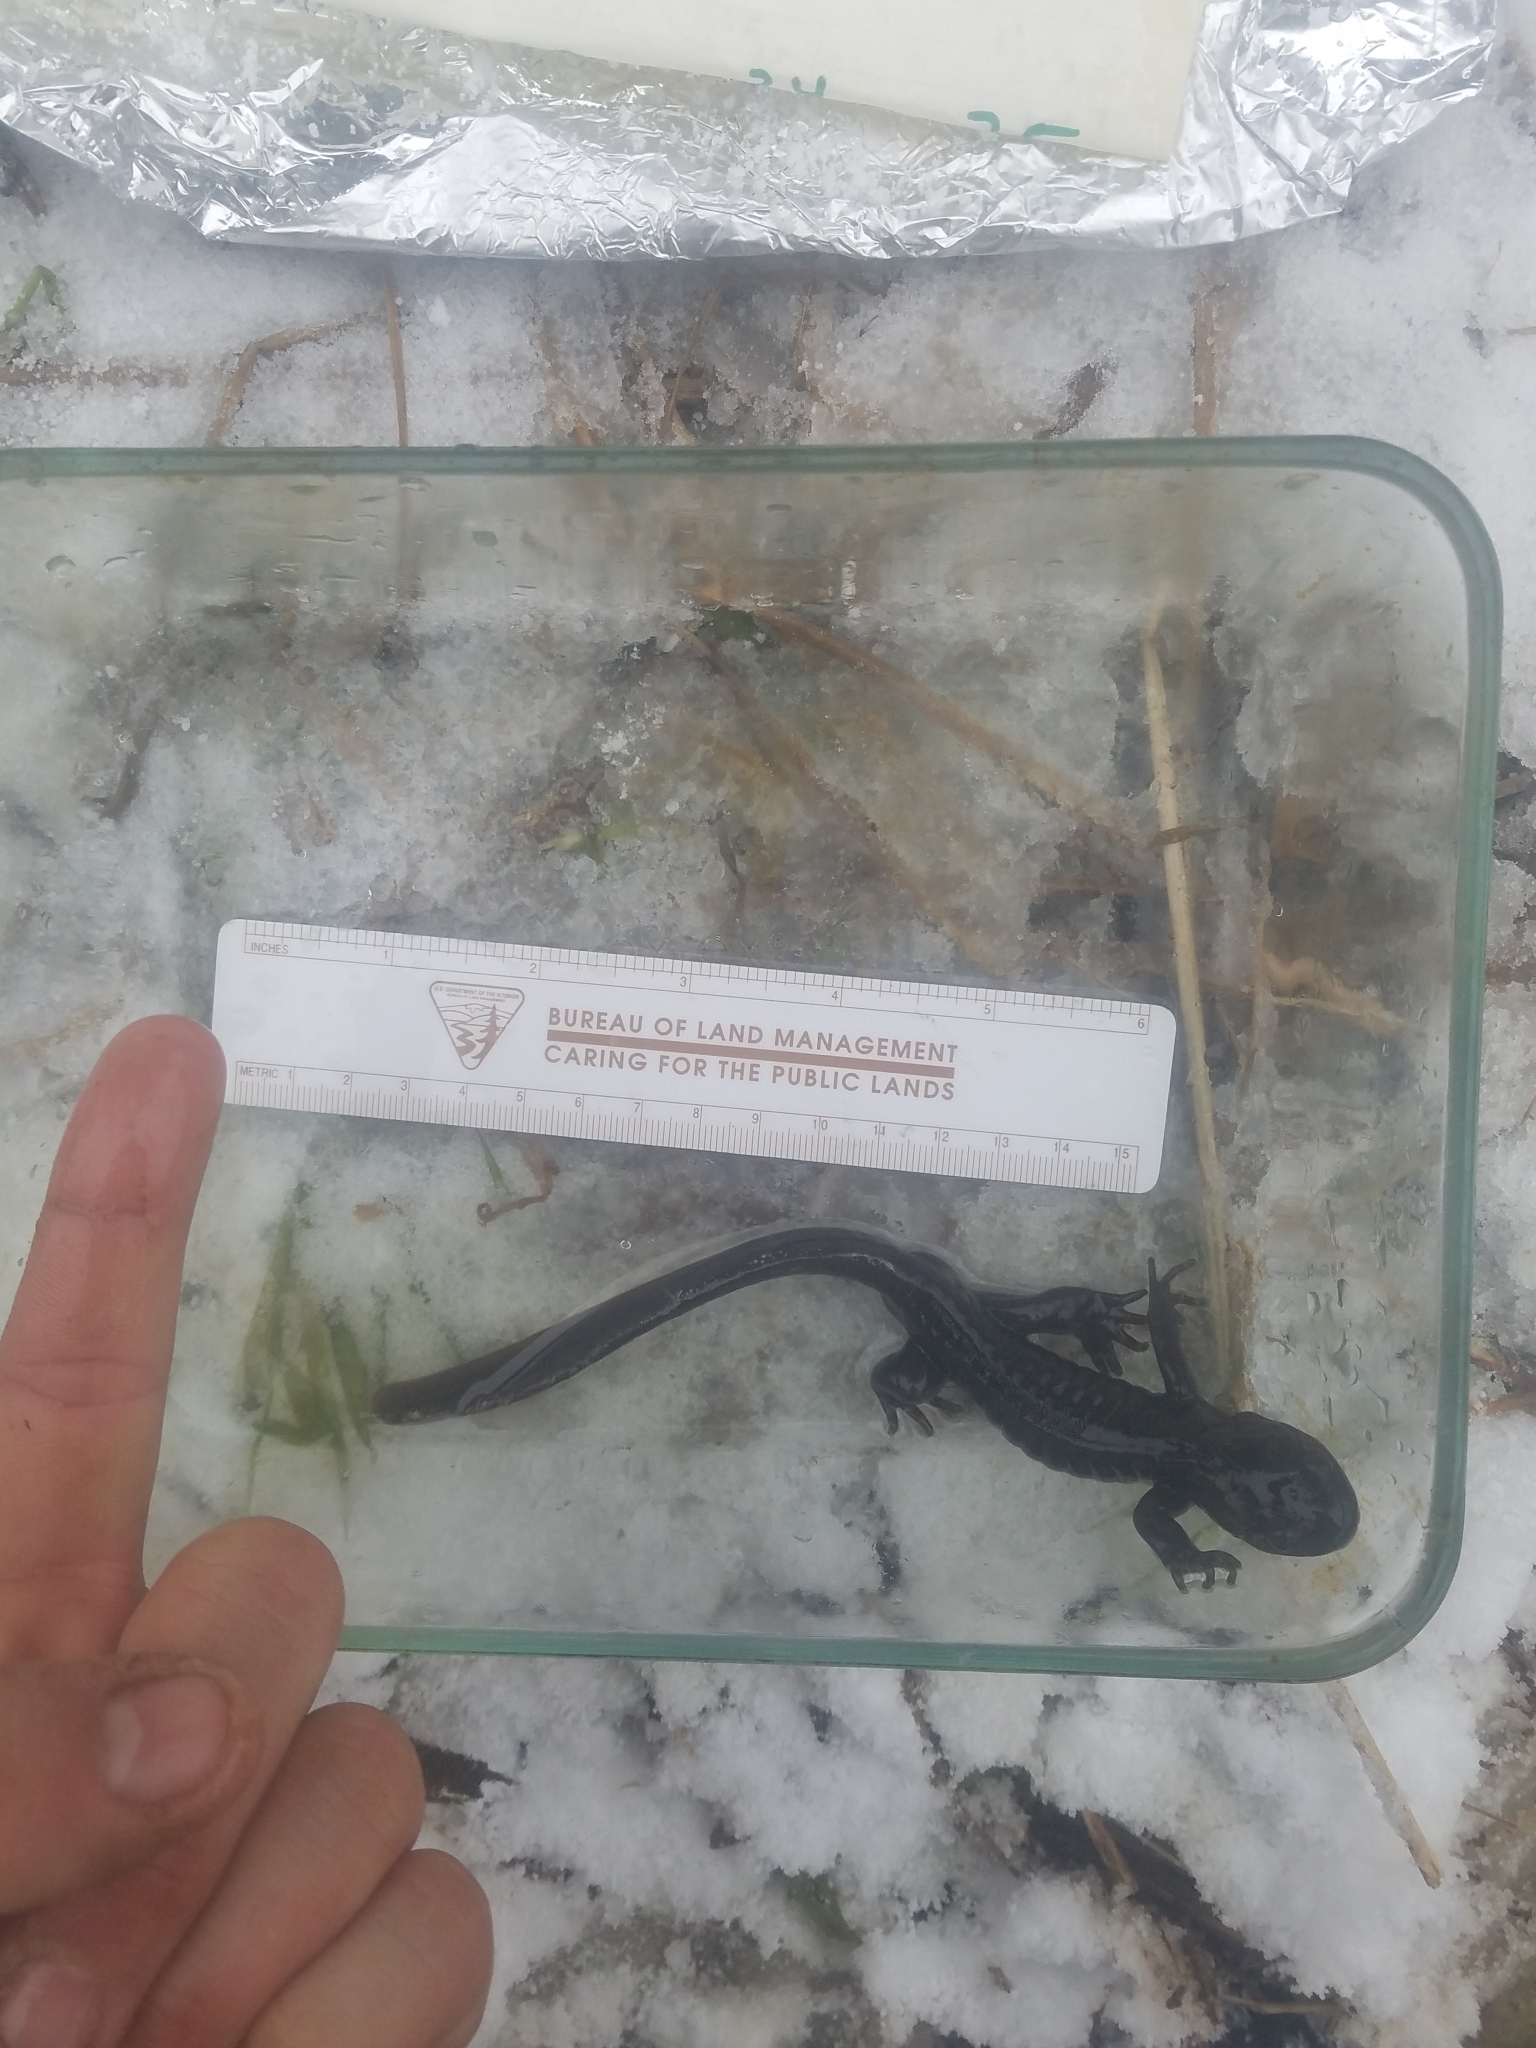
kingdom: Animalia
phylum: Chordata
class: Amphibia
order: Caudata
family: Ambystomatidae
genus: Ambystoma
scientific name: Ambystoma gracile
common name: Northwestern salamander
